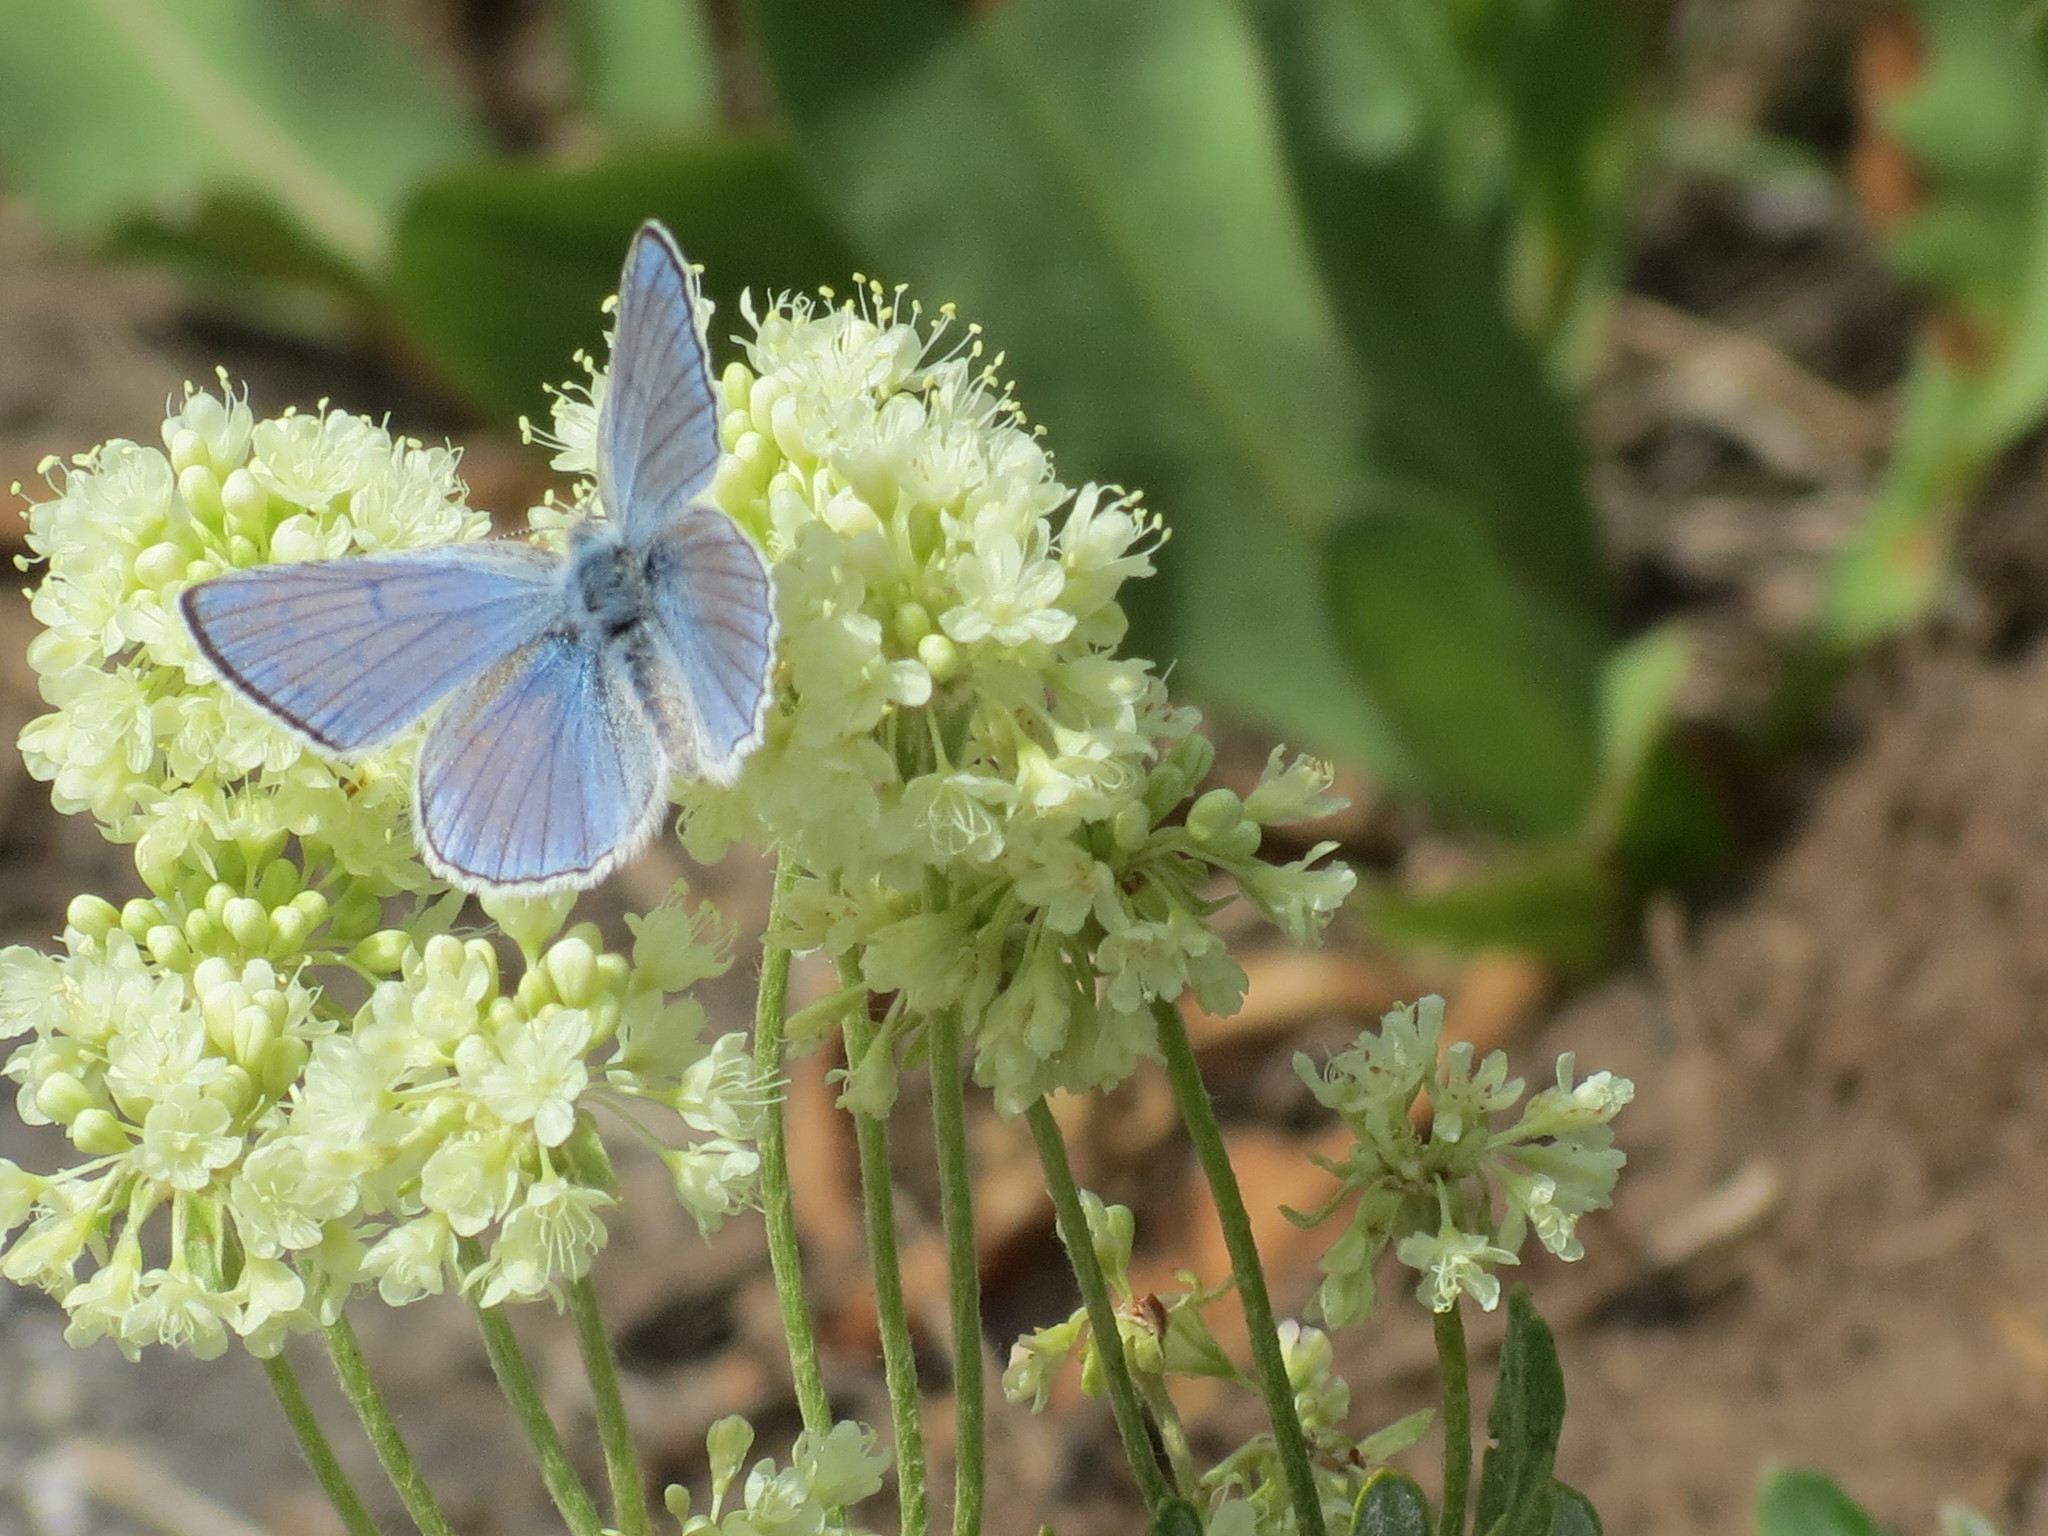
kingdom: Animalia
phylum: Arthropoda
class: Insecta
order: Lepidoptera
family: Lycaenidae
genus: Tharsalea
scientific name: Tharsalea heteronea
